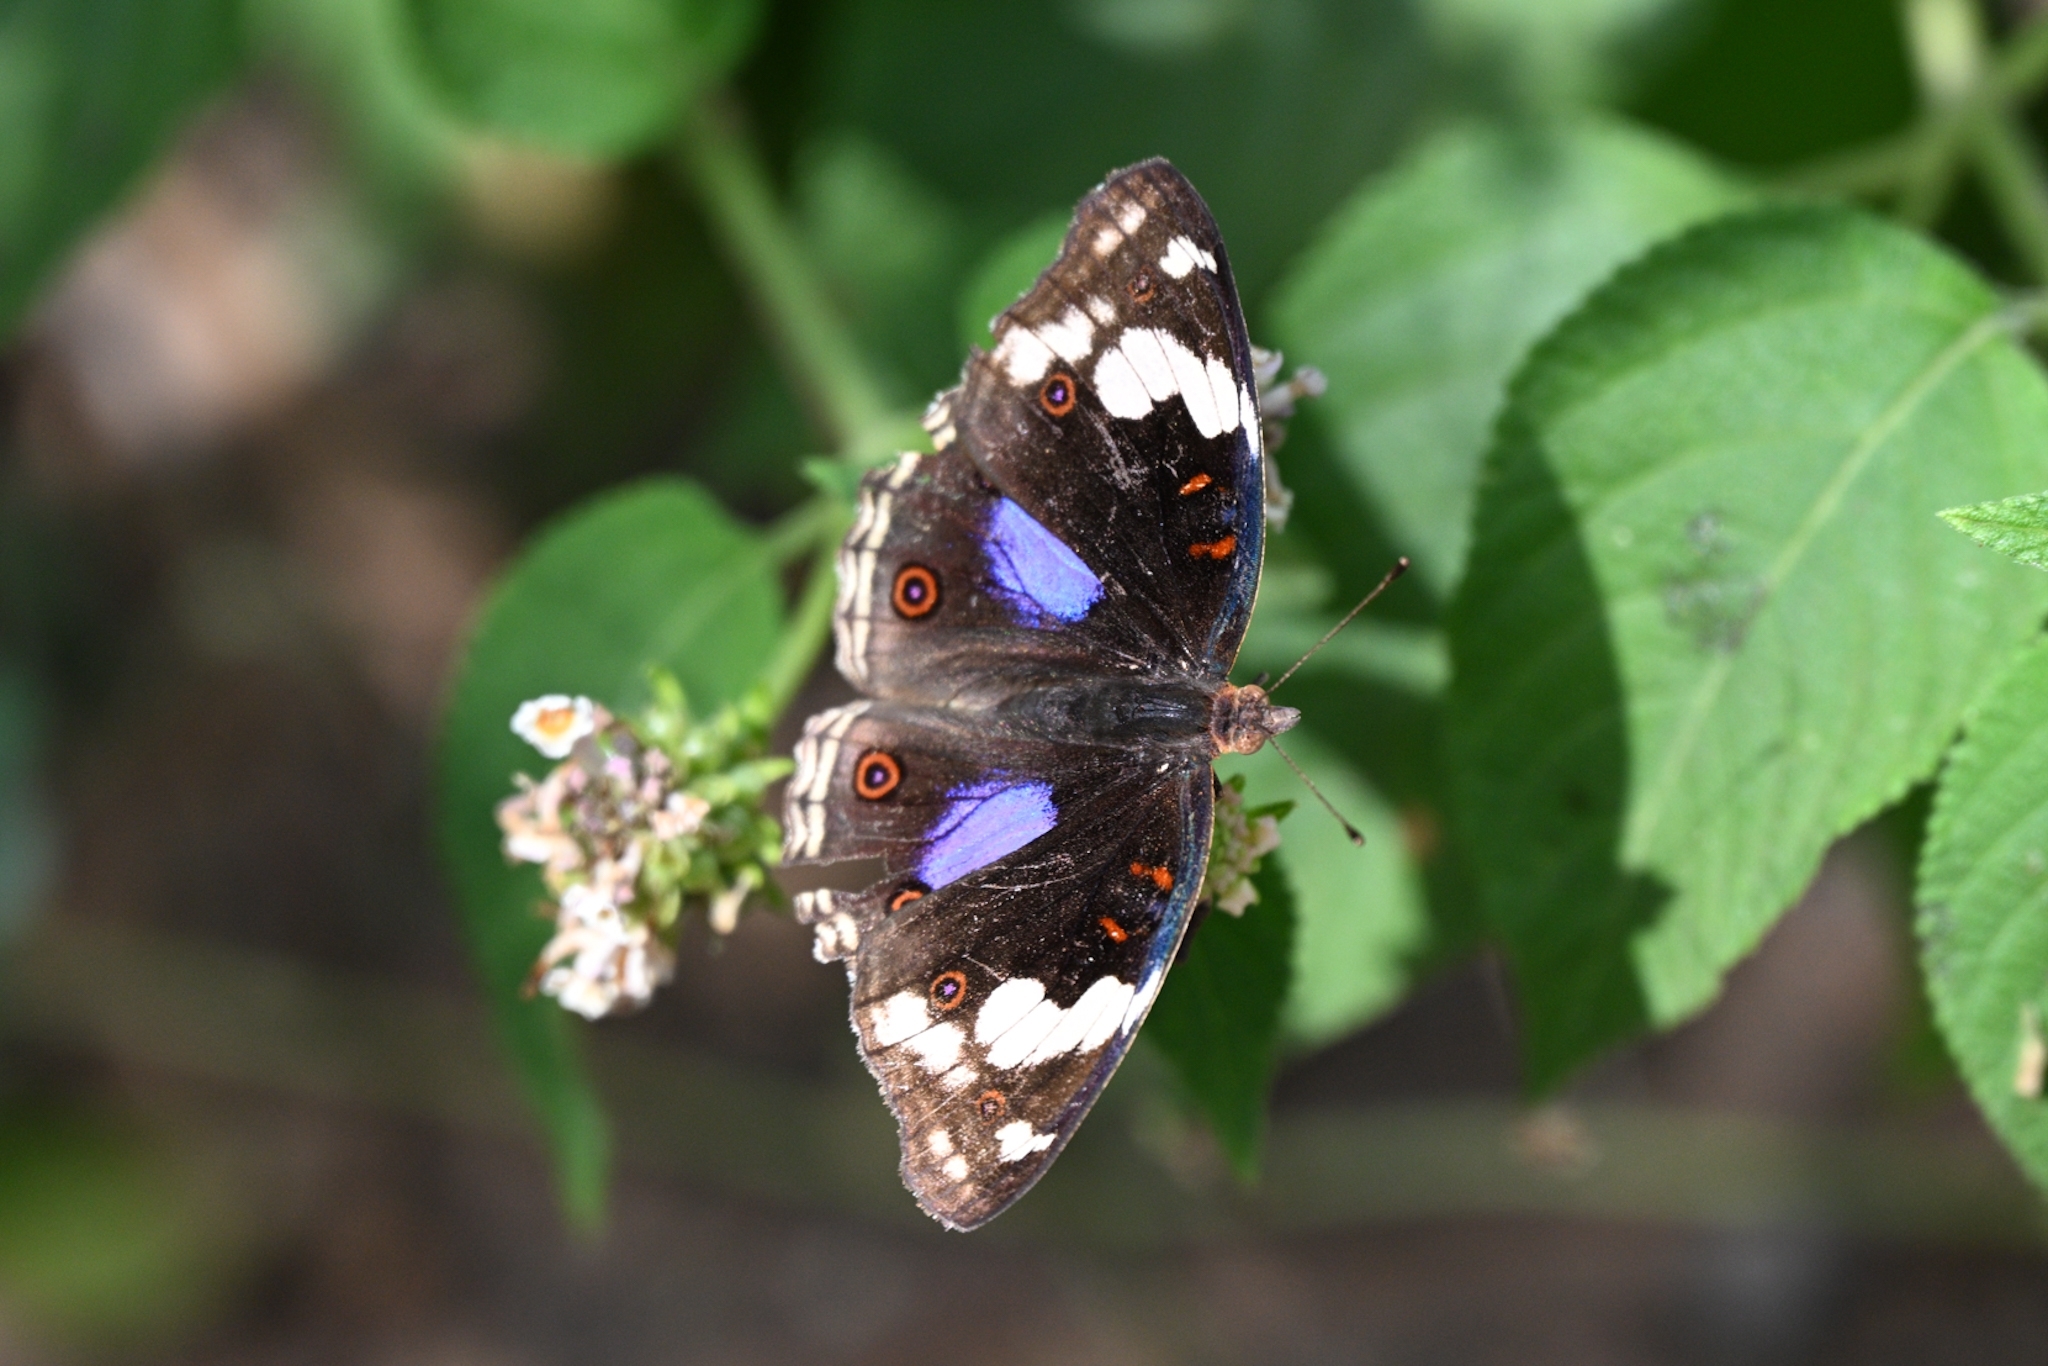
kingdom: Animalia
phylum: Arthropoda
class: Insecta
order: Lepidoptera
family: Nymphalidae
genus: Junonia
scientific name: Junonia oenone
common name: Dark blue pansy
